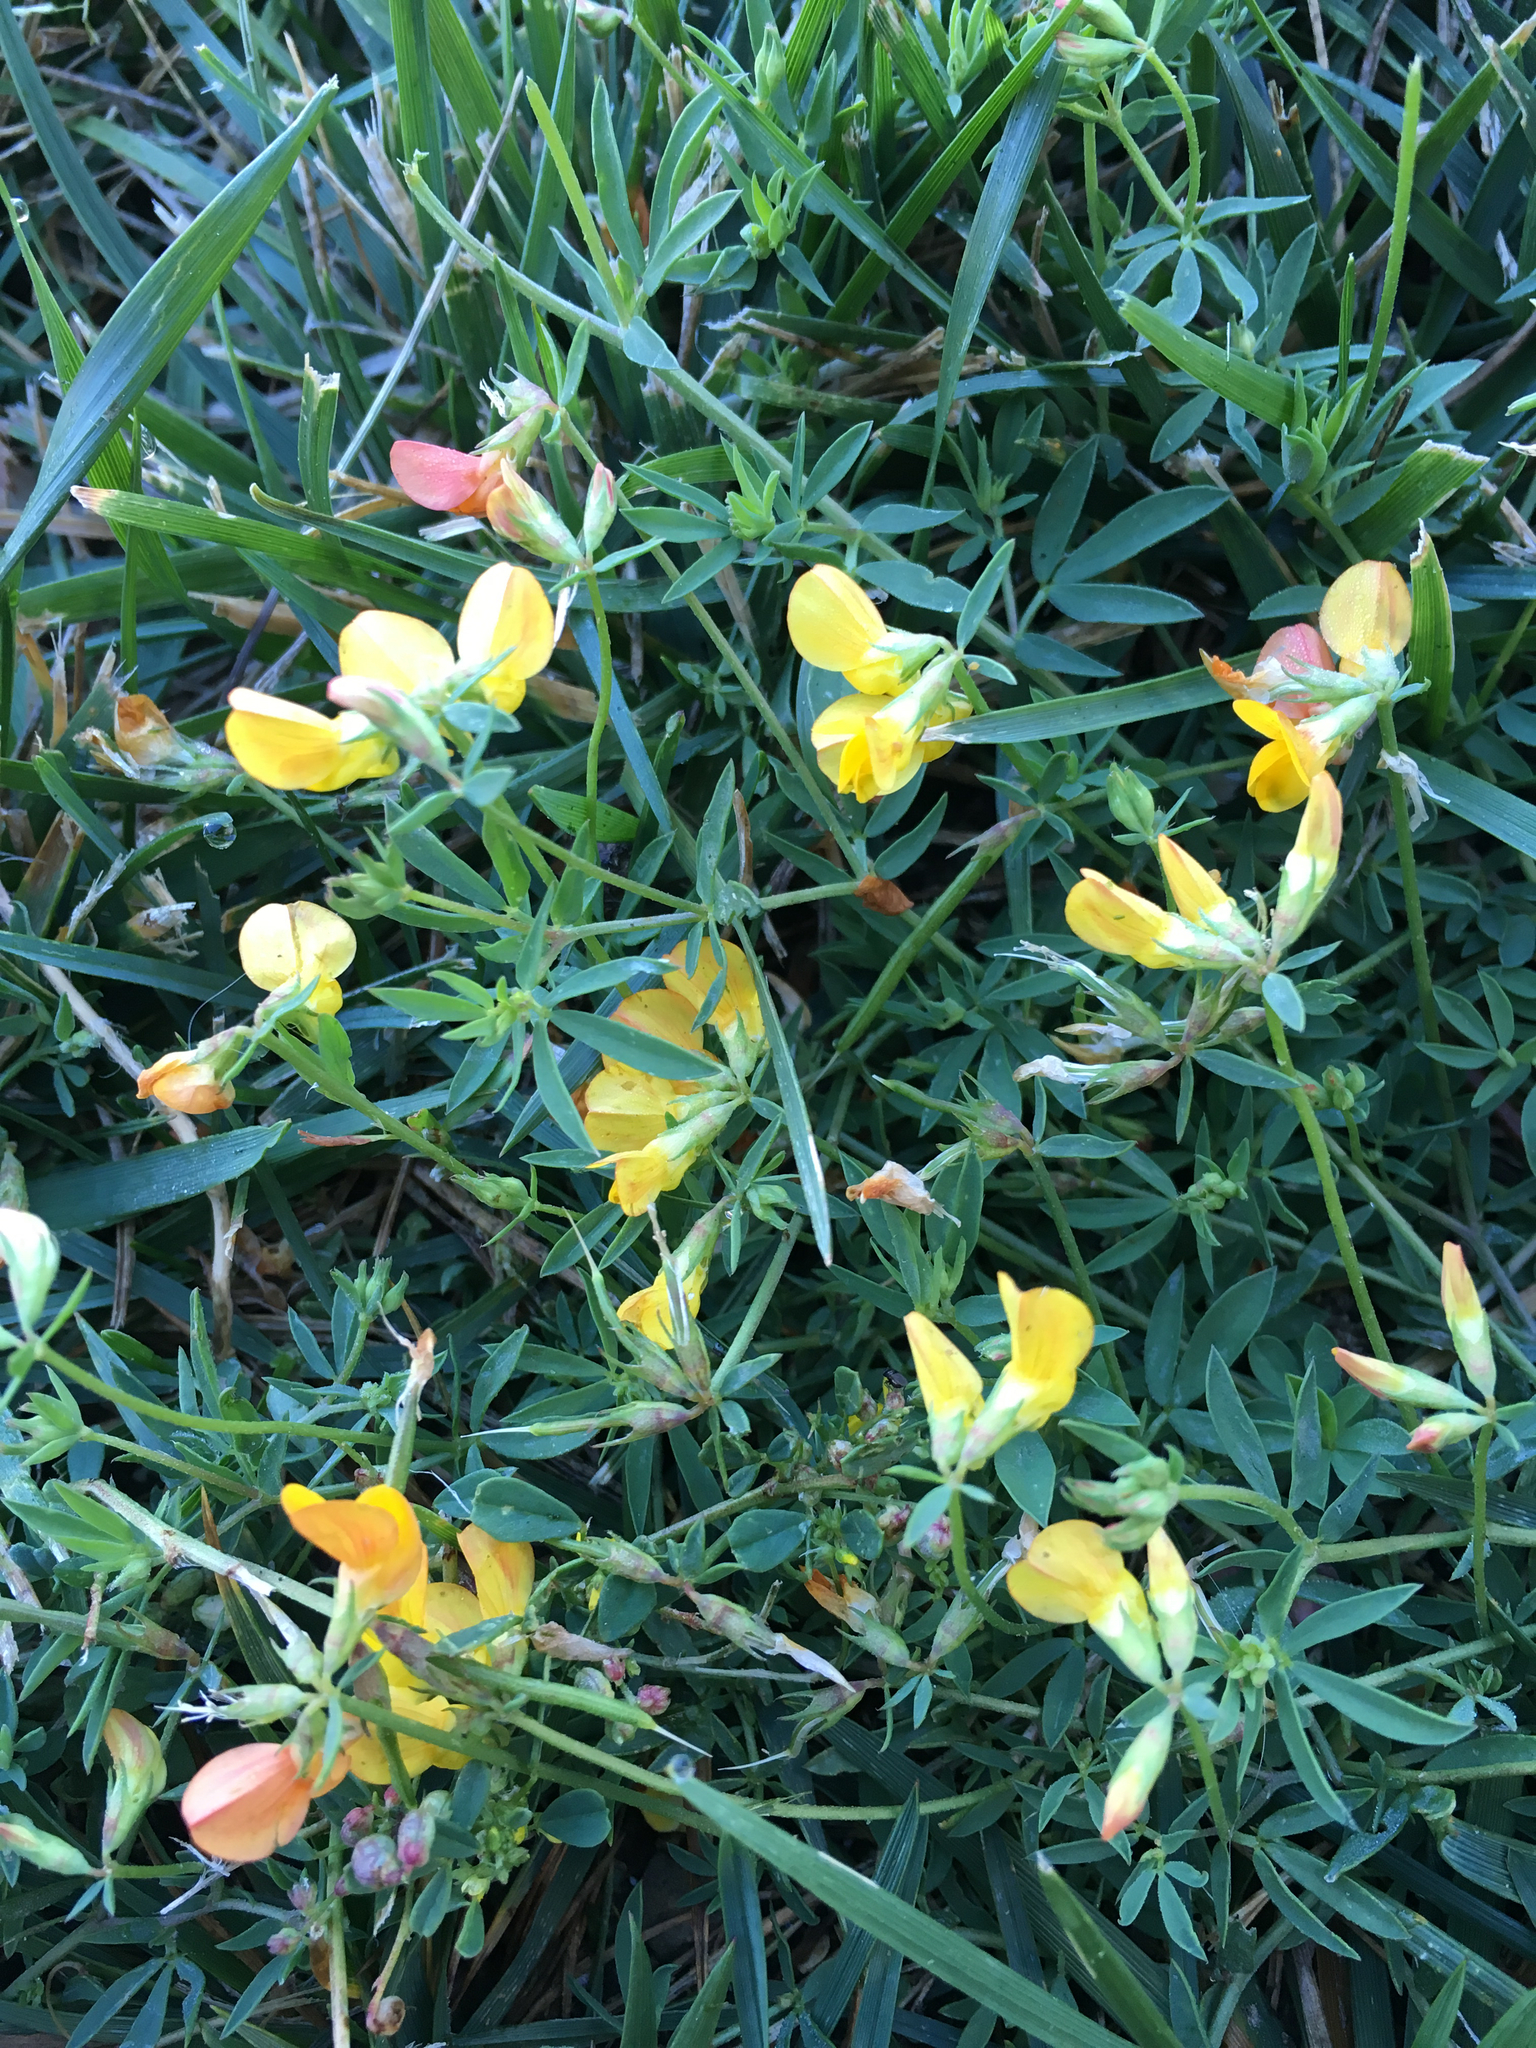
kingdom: Plantae
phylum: Tracheophyta
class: Magnoliopsida
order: Fabales
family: Fabaceae
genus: Lotus
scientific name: Lotus corniculatus
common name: Common bird's-foot-trefoil
